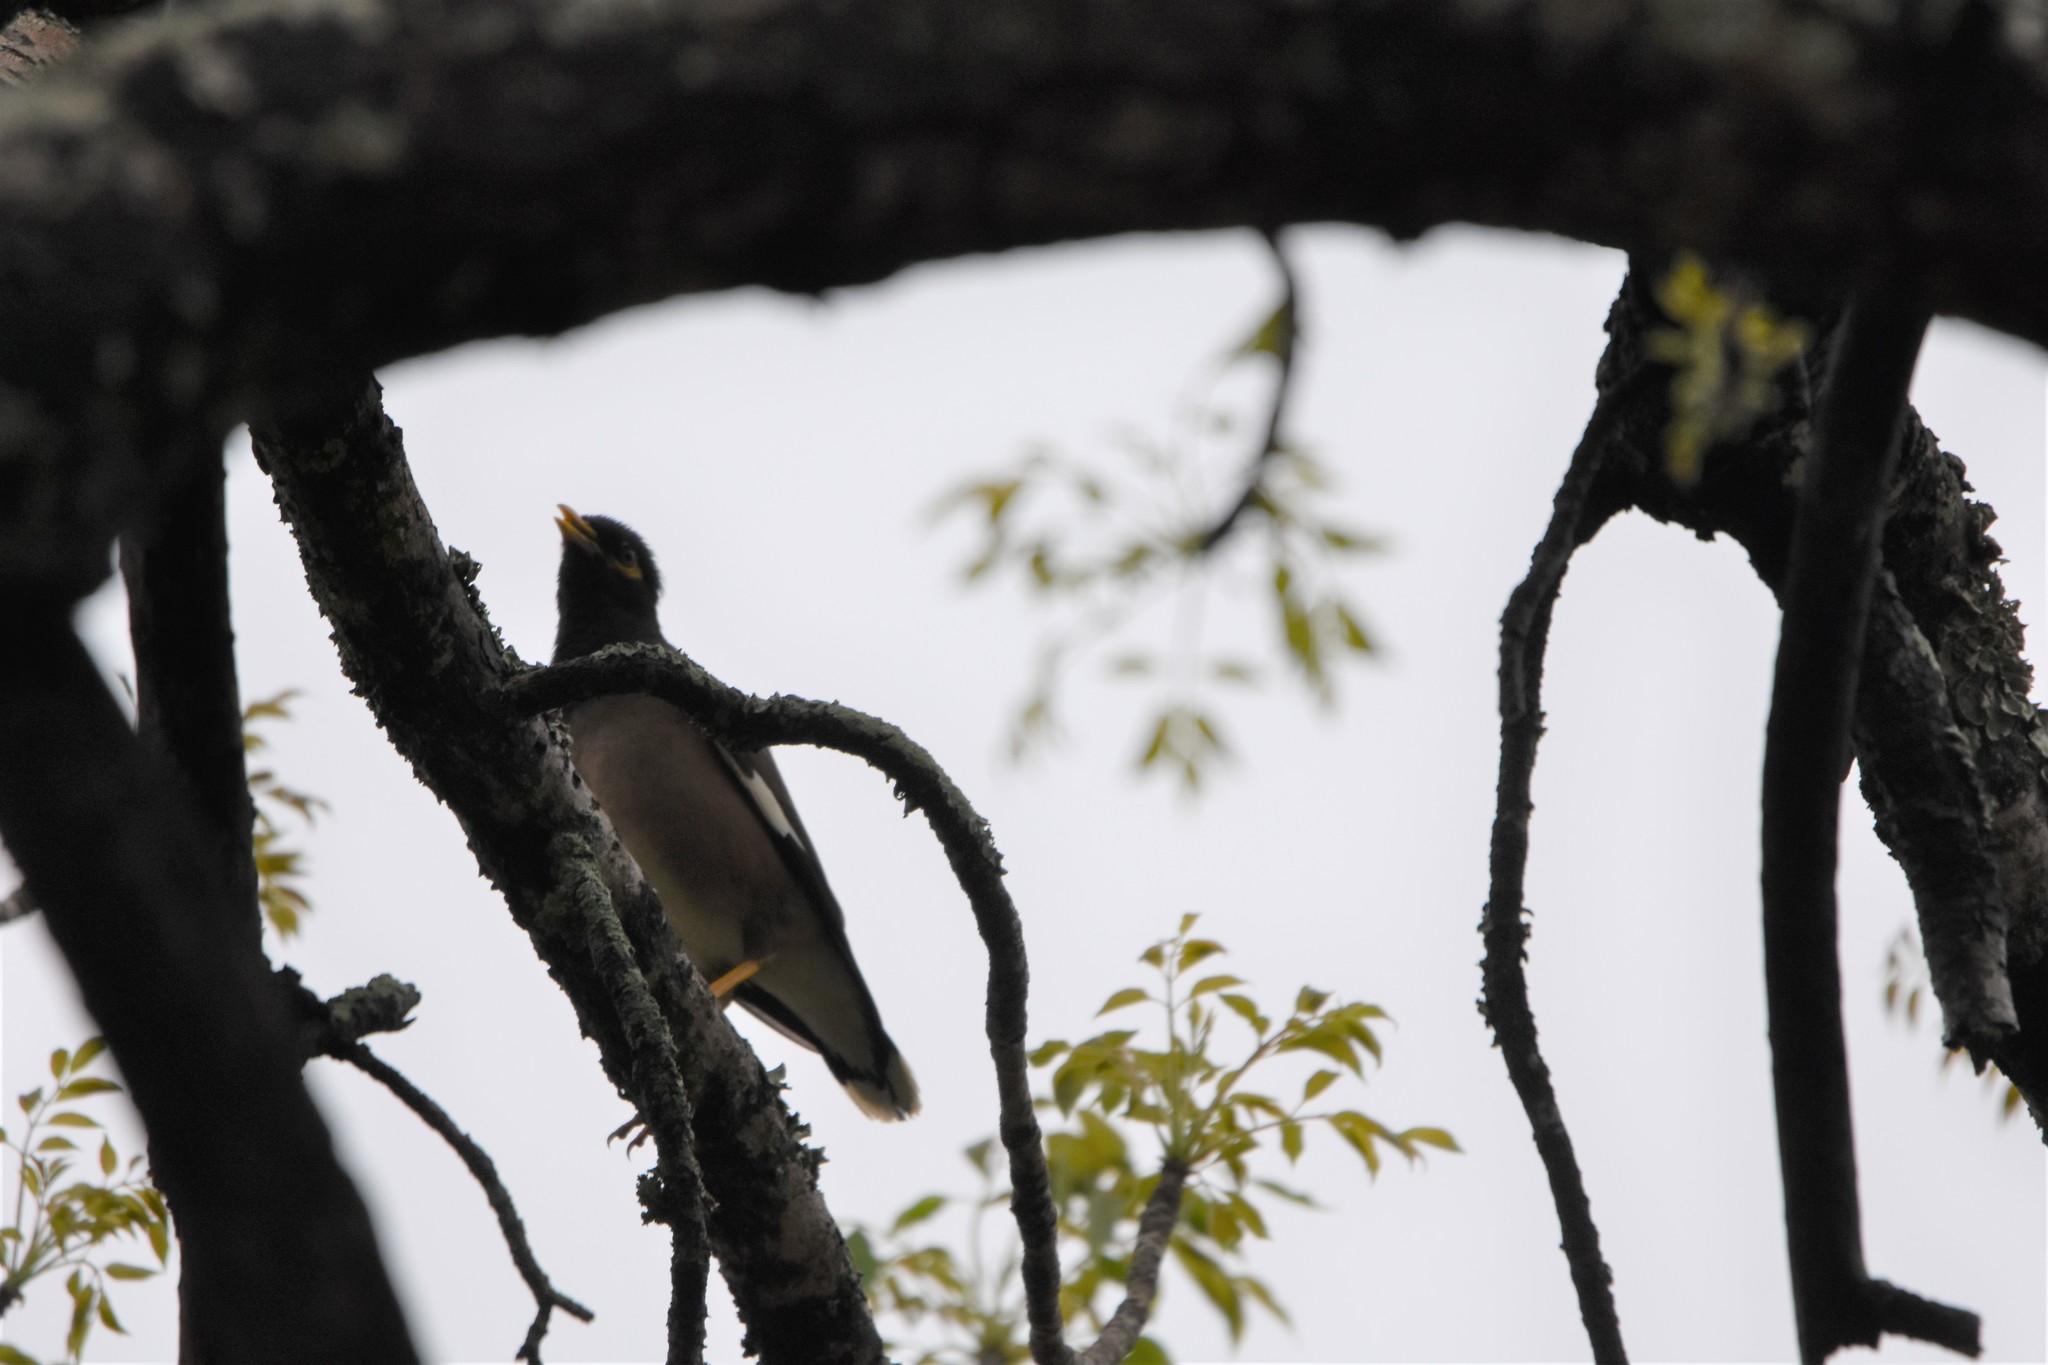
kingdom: Animalia
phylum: Chordata
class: Aves
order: Passeriformes
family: Sturnidae
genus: Acridotheres
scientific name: Acridotheres tristis
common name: Common myna
